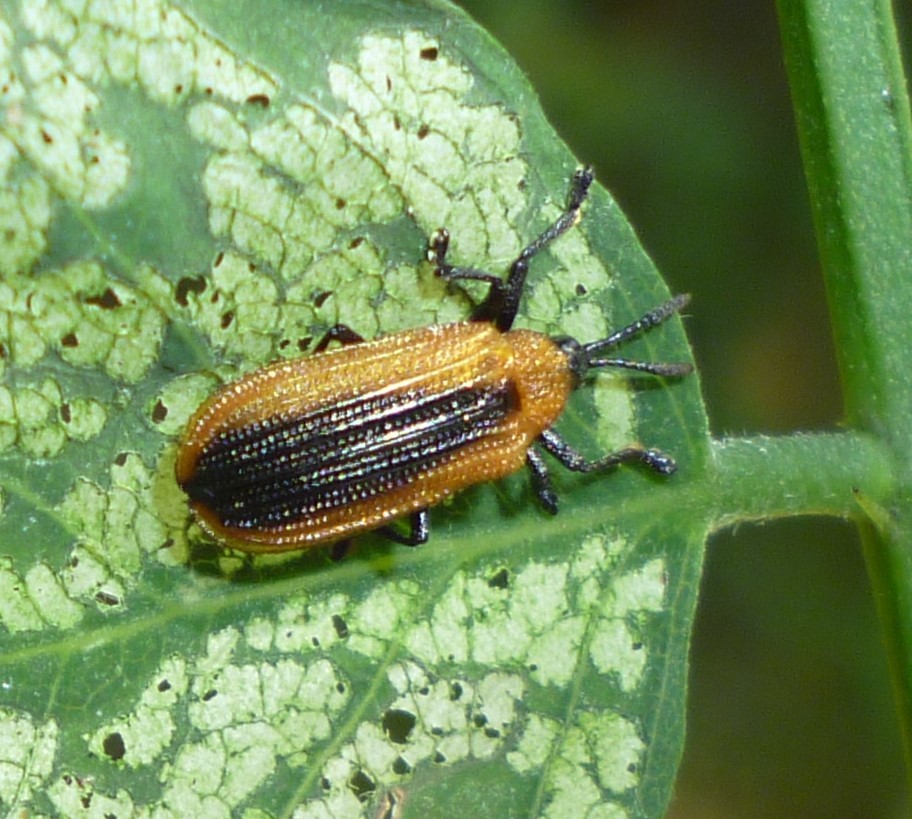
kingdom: Animalia
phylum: Arthropoda
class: Insecta
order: Coleoptera
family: Chrysomelidae
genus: Odontota
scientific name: Odontota dorsalis
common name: Locust leaf-miner beetle
